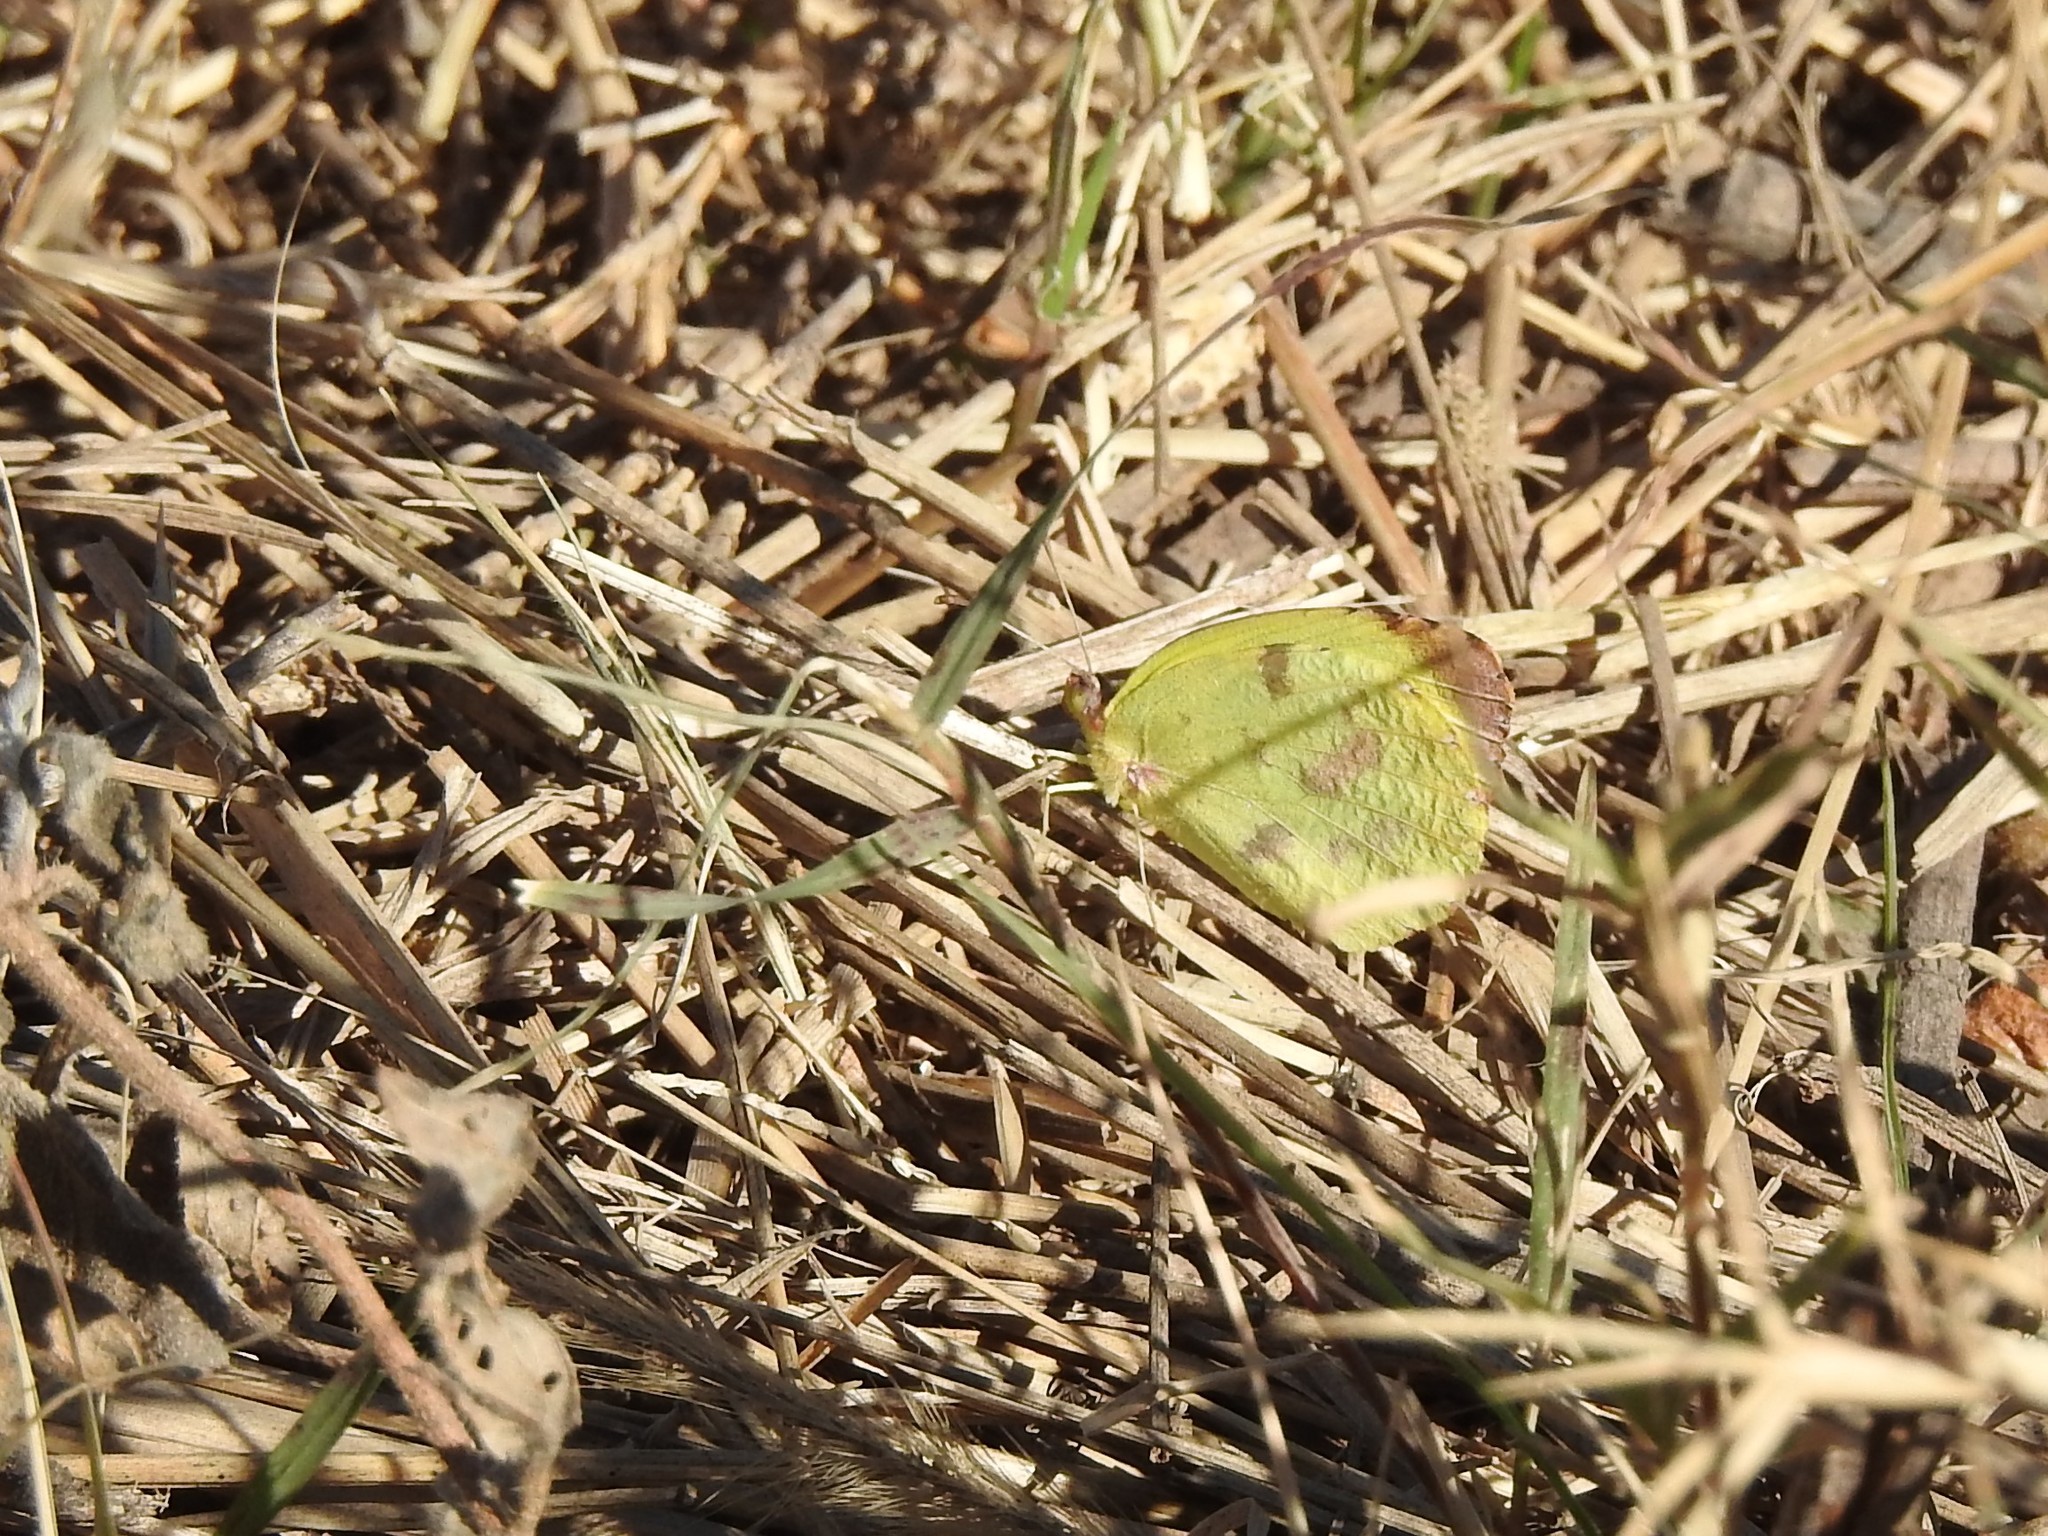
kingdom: Animalia
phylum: Arthropoda
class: Insecta
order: Lepidoptera
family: Pieridae
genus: Teriocolias
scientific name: Teriocolias
